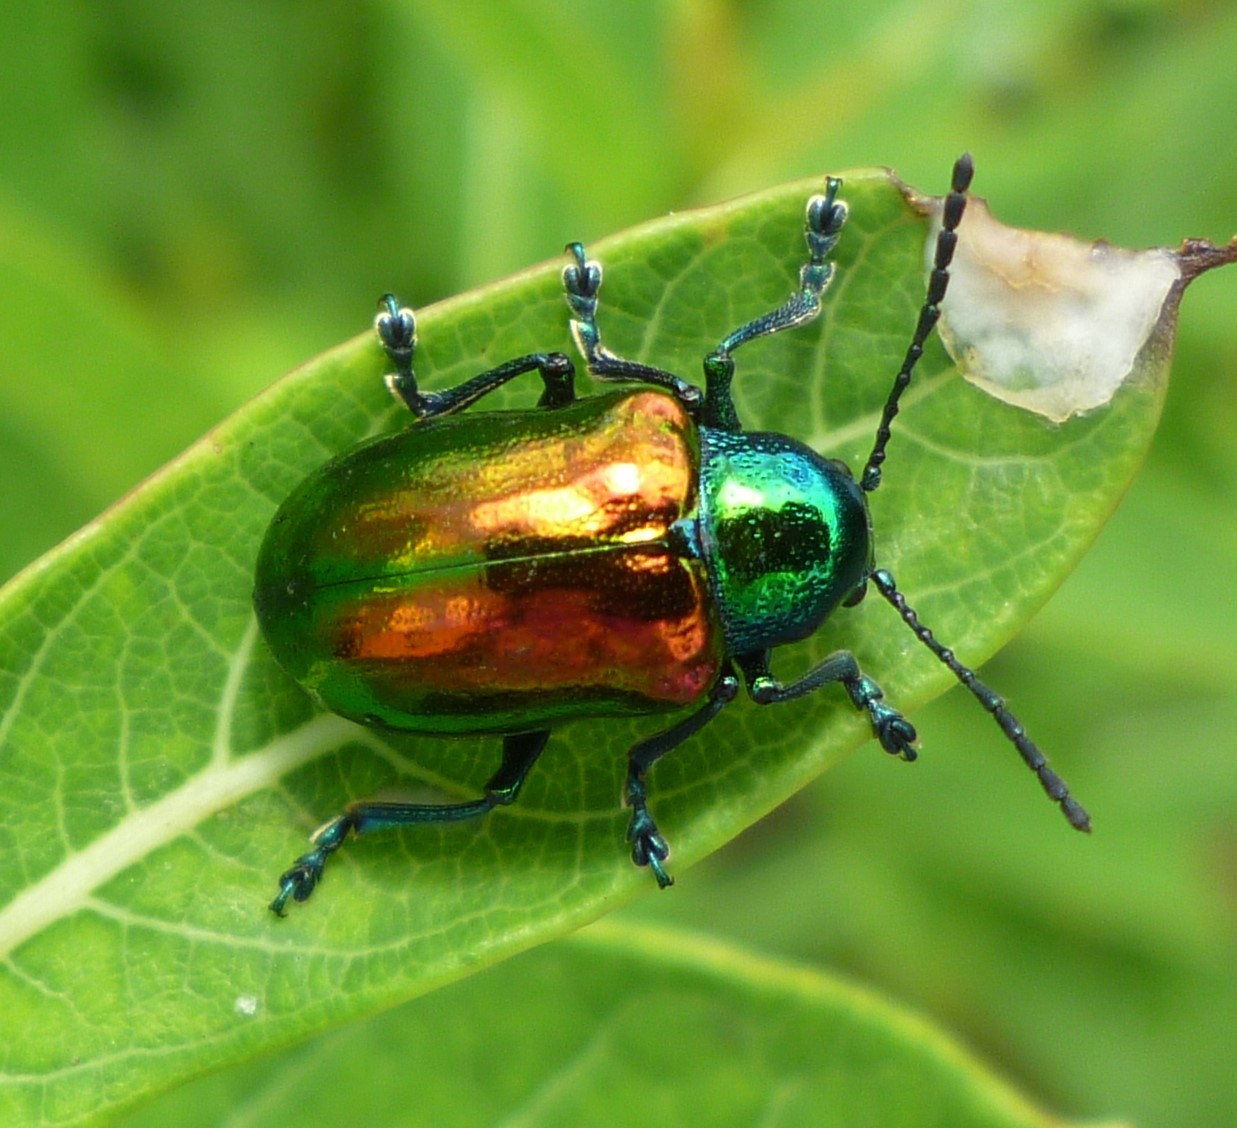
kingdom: Animalia
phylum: Arthropoda
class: Insecta
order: Coleoptera
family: Chrysomelidae
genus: Chrysochus
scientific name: Chrysochus auratus
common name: Dogbane leaf beetle
